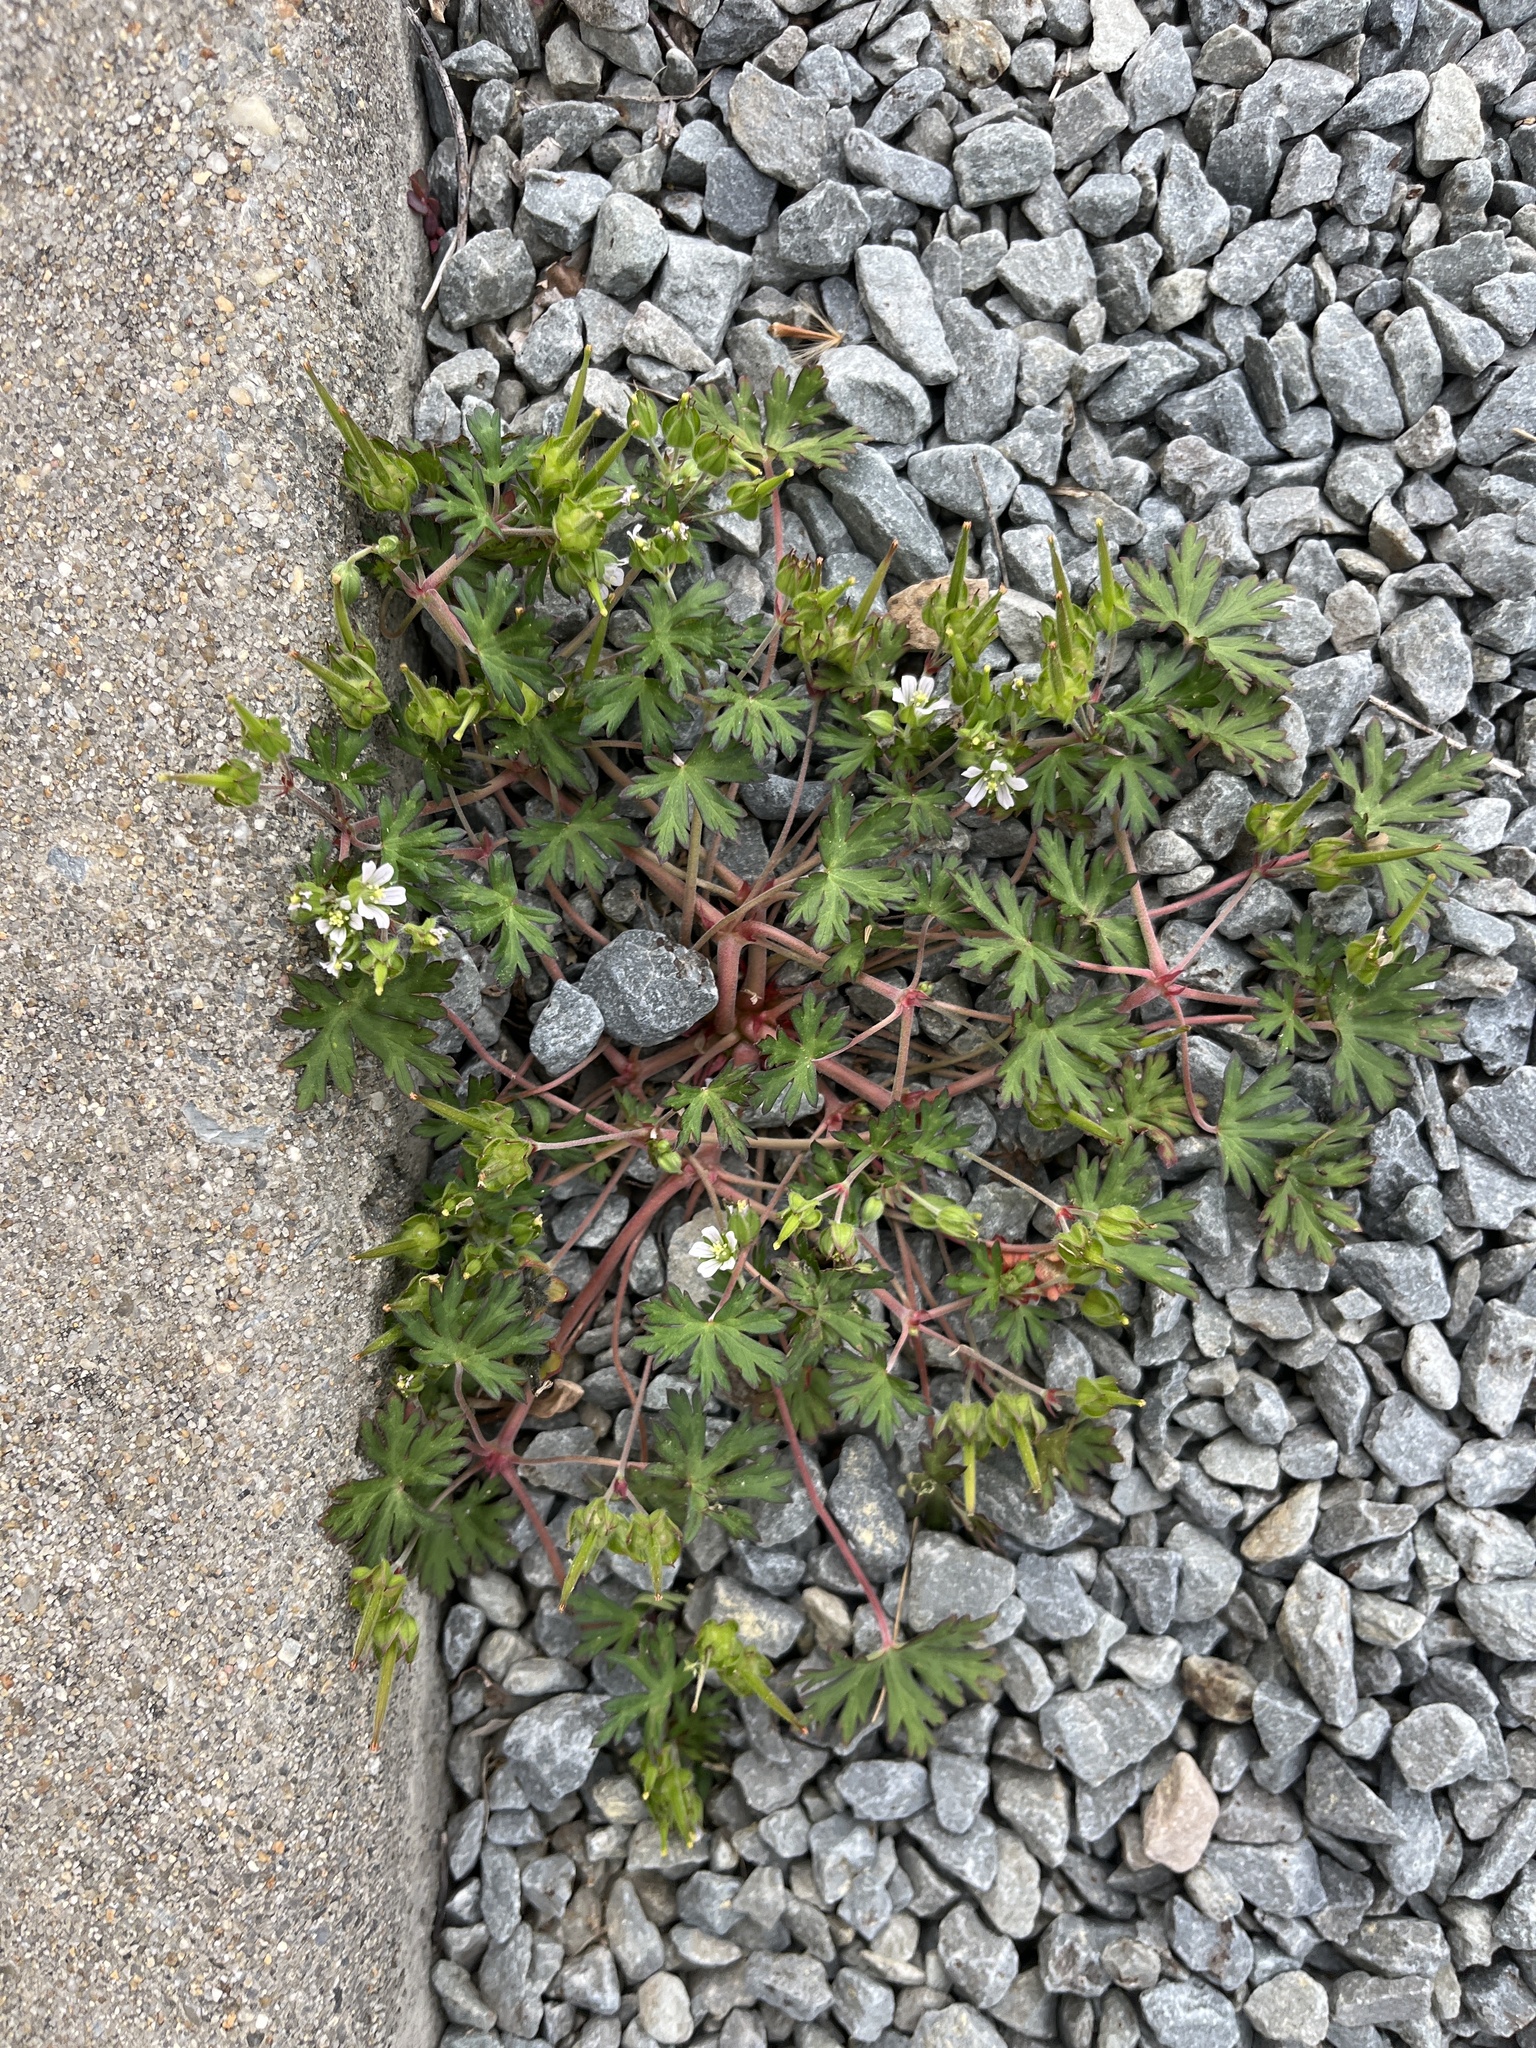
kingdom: Plantae
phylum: Tracheophyta
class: Magnoliopsida
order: Geraniales
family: Geraniaceae
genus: Geranium
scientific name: Geranium carolinianum
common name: Carolina crane's-bill
